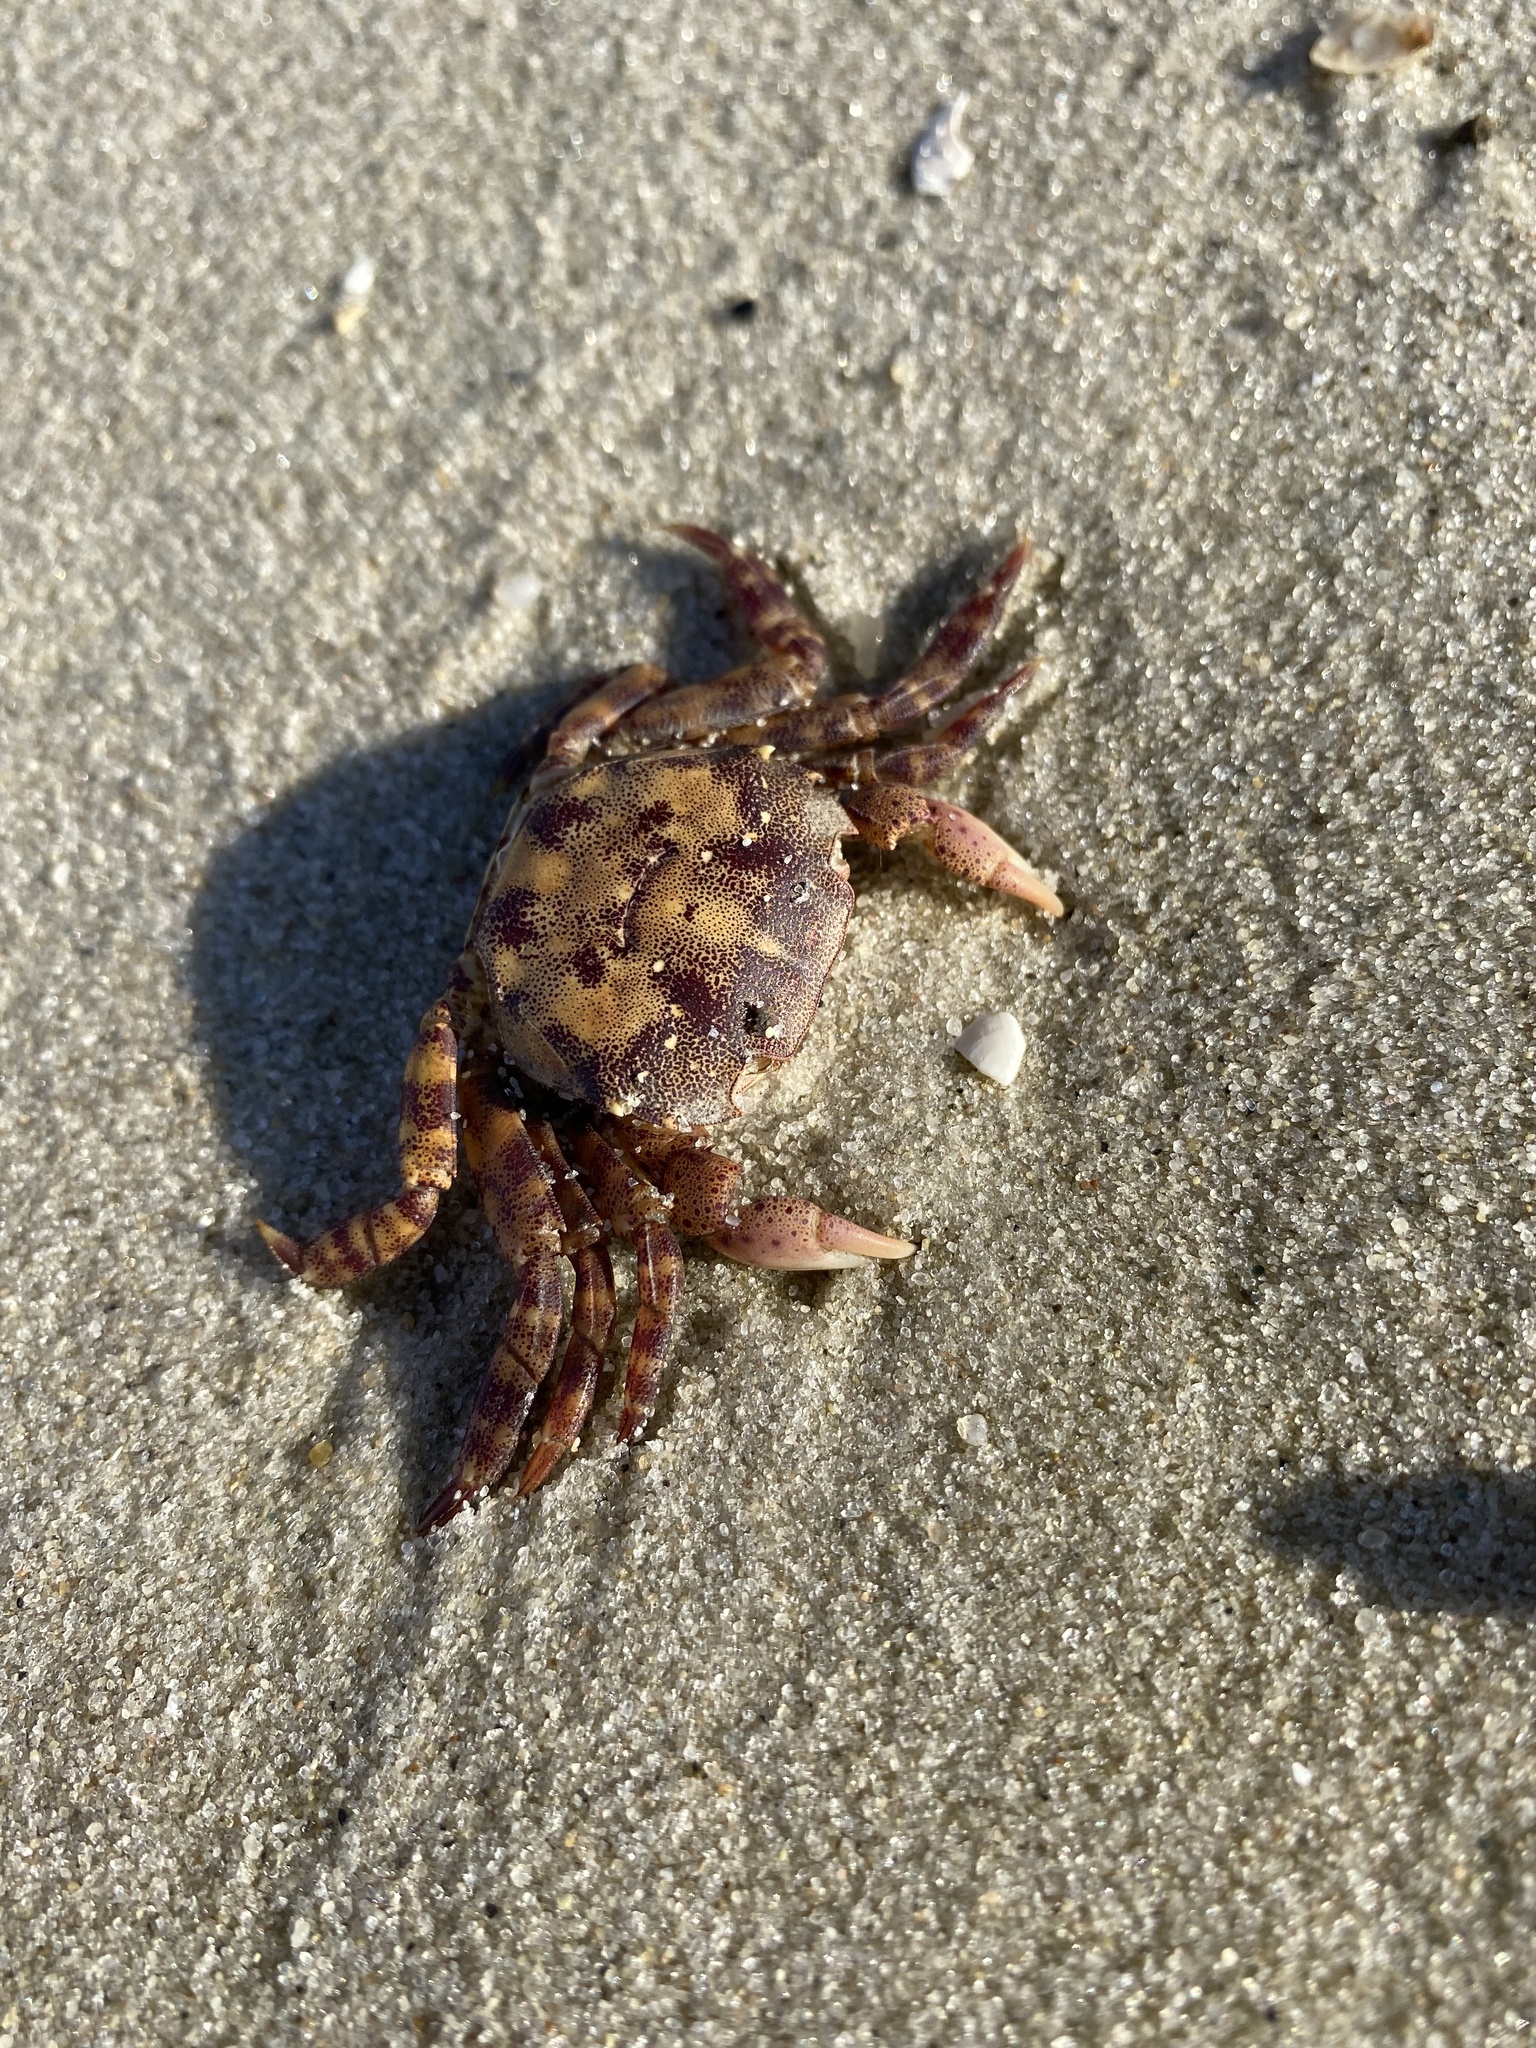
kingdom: Animalia
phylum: Arthropoda
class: Malacostraca
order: Decapoda
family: Varunidae
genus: Hemigrapsus
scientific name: Hemigrapsus sanguineus
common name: Asian shore crab
